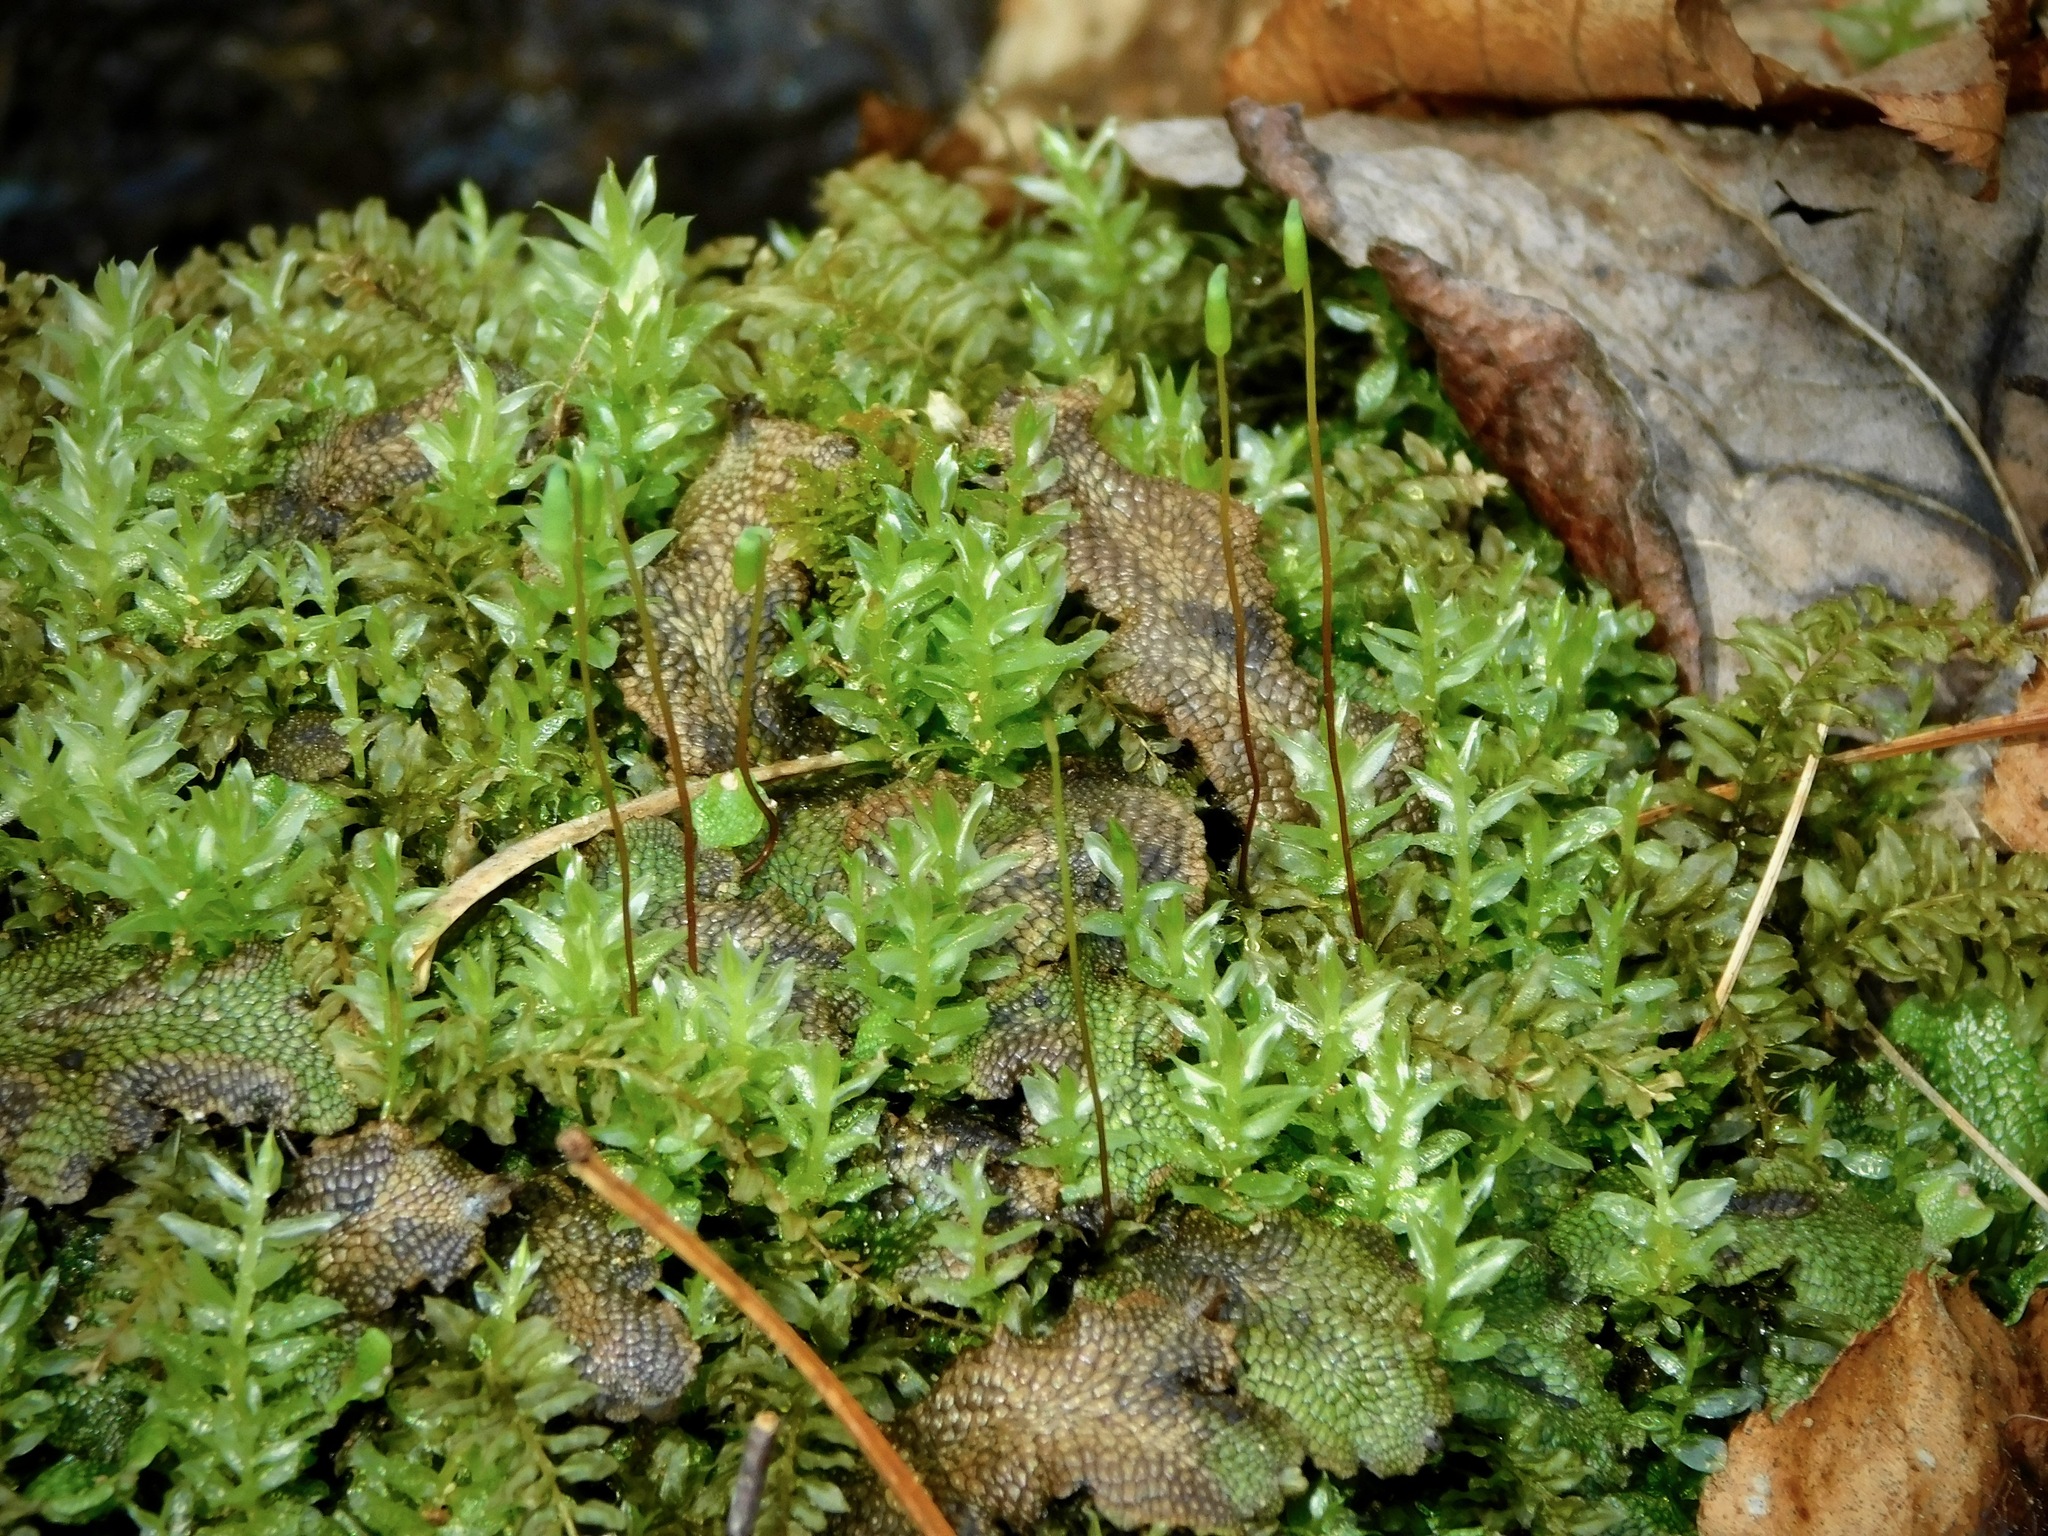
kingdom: Plantae
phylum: Bryophyta
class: Bryopsida
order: Bryales
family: Mniaceae
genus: Plagiomnium
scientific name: Plagiomnium ciliare
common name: Toothed leafy moss
